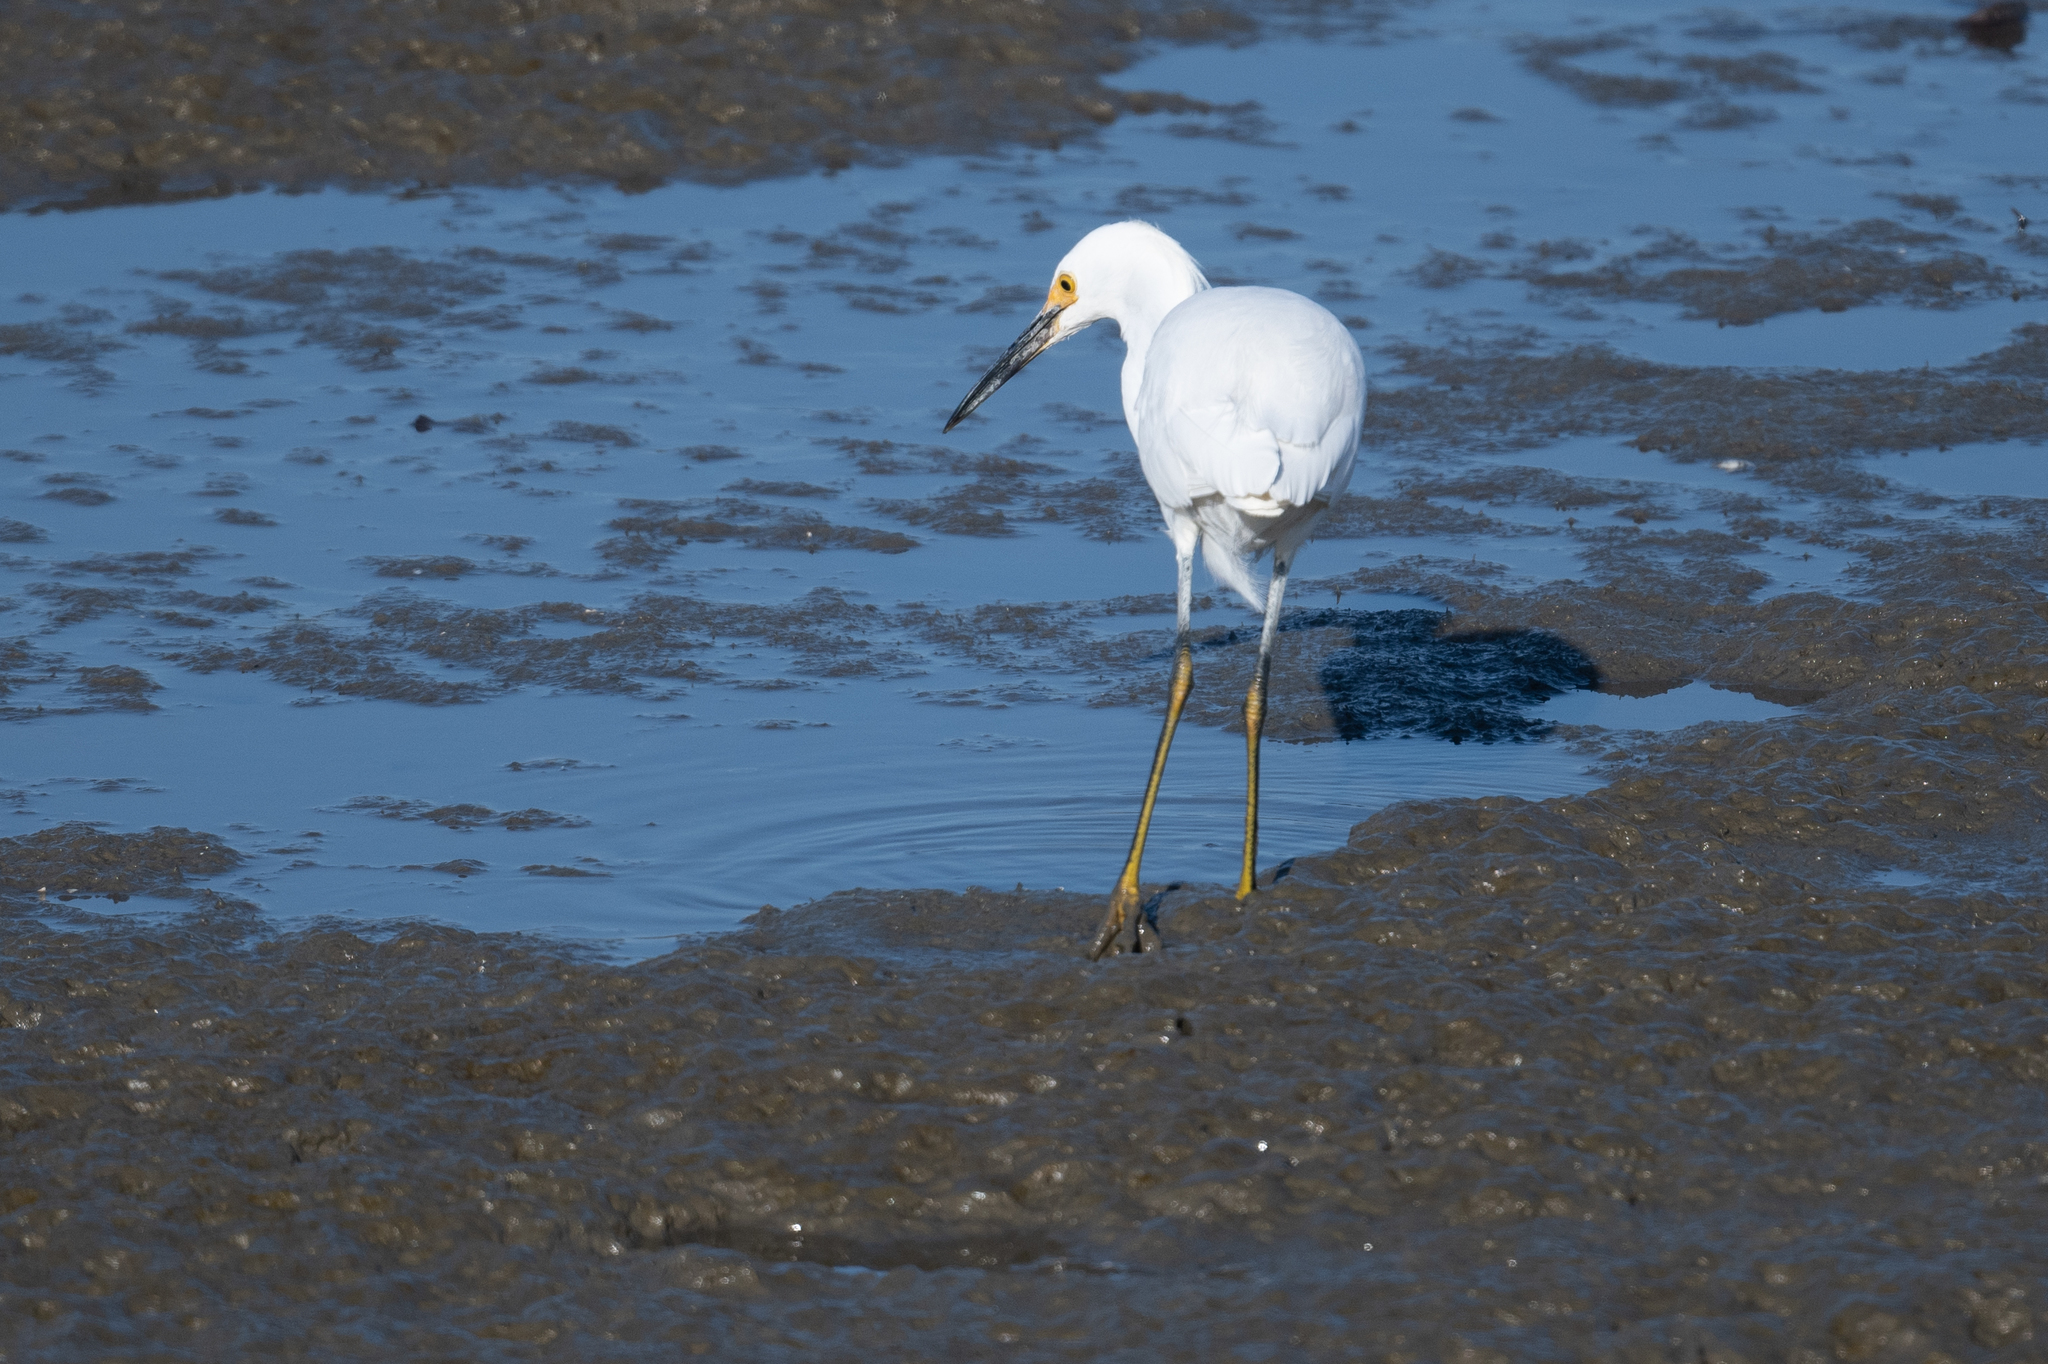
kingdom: Animalia
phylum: Chordata
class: Aves
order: Pelecaniformes
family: Ardeidae
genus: Egretta
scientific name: Egretta thula
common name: Snowy egret
